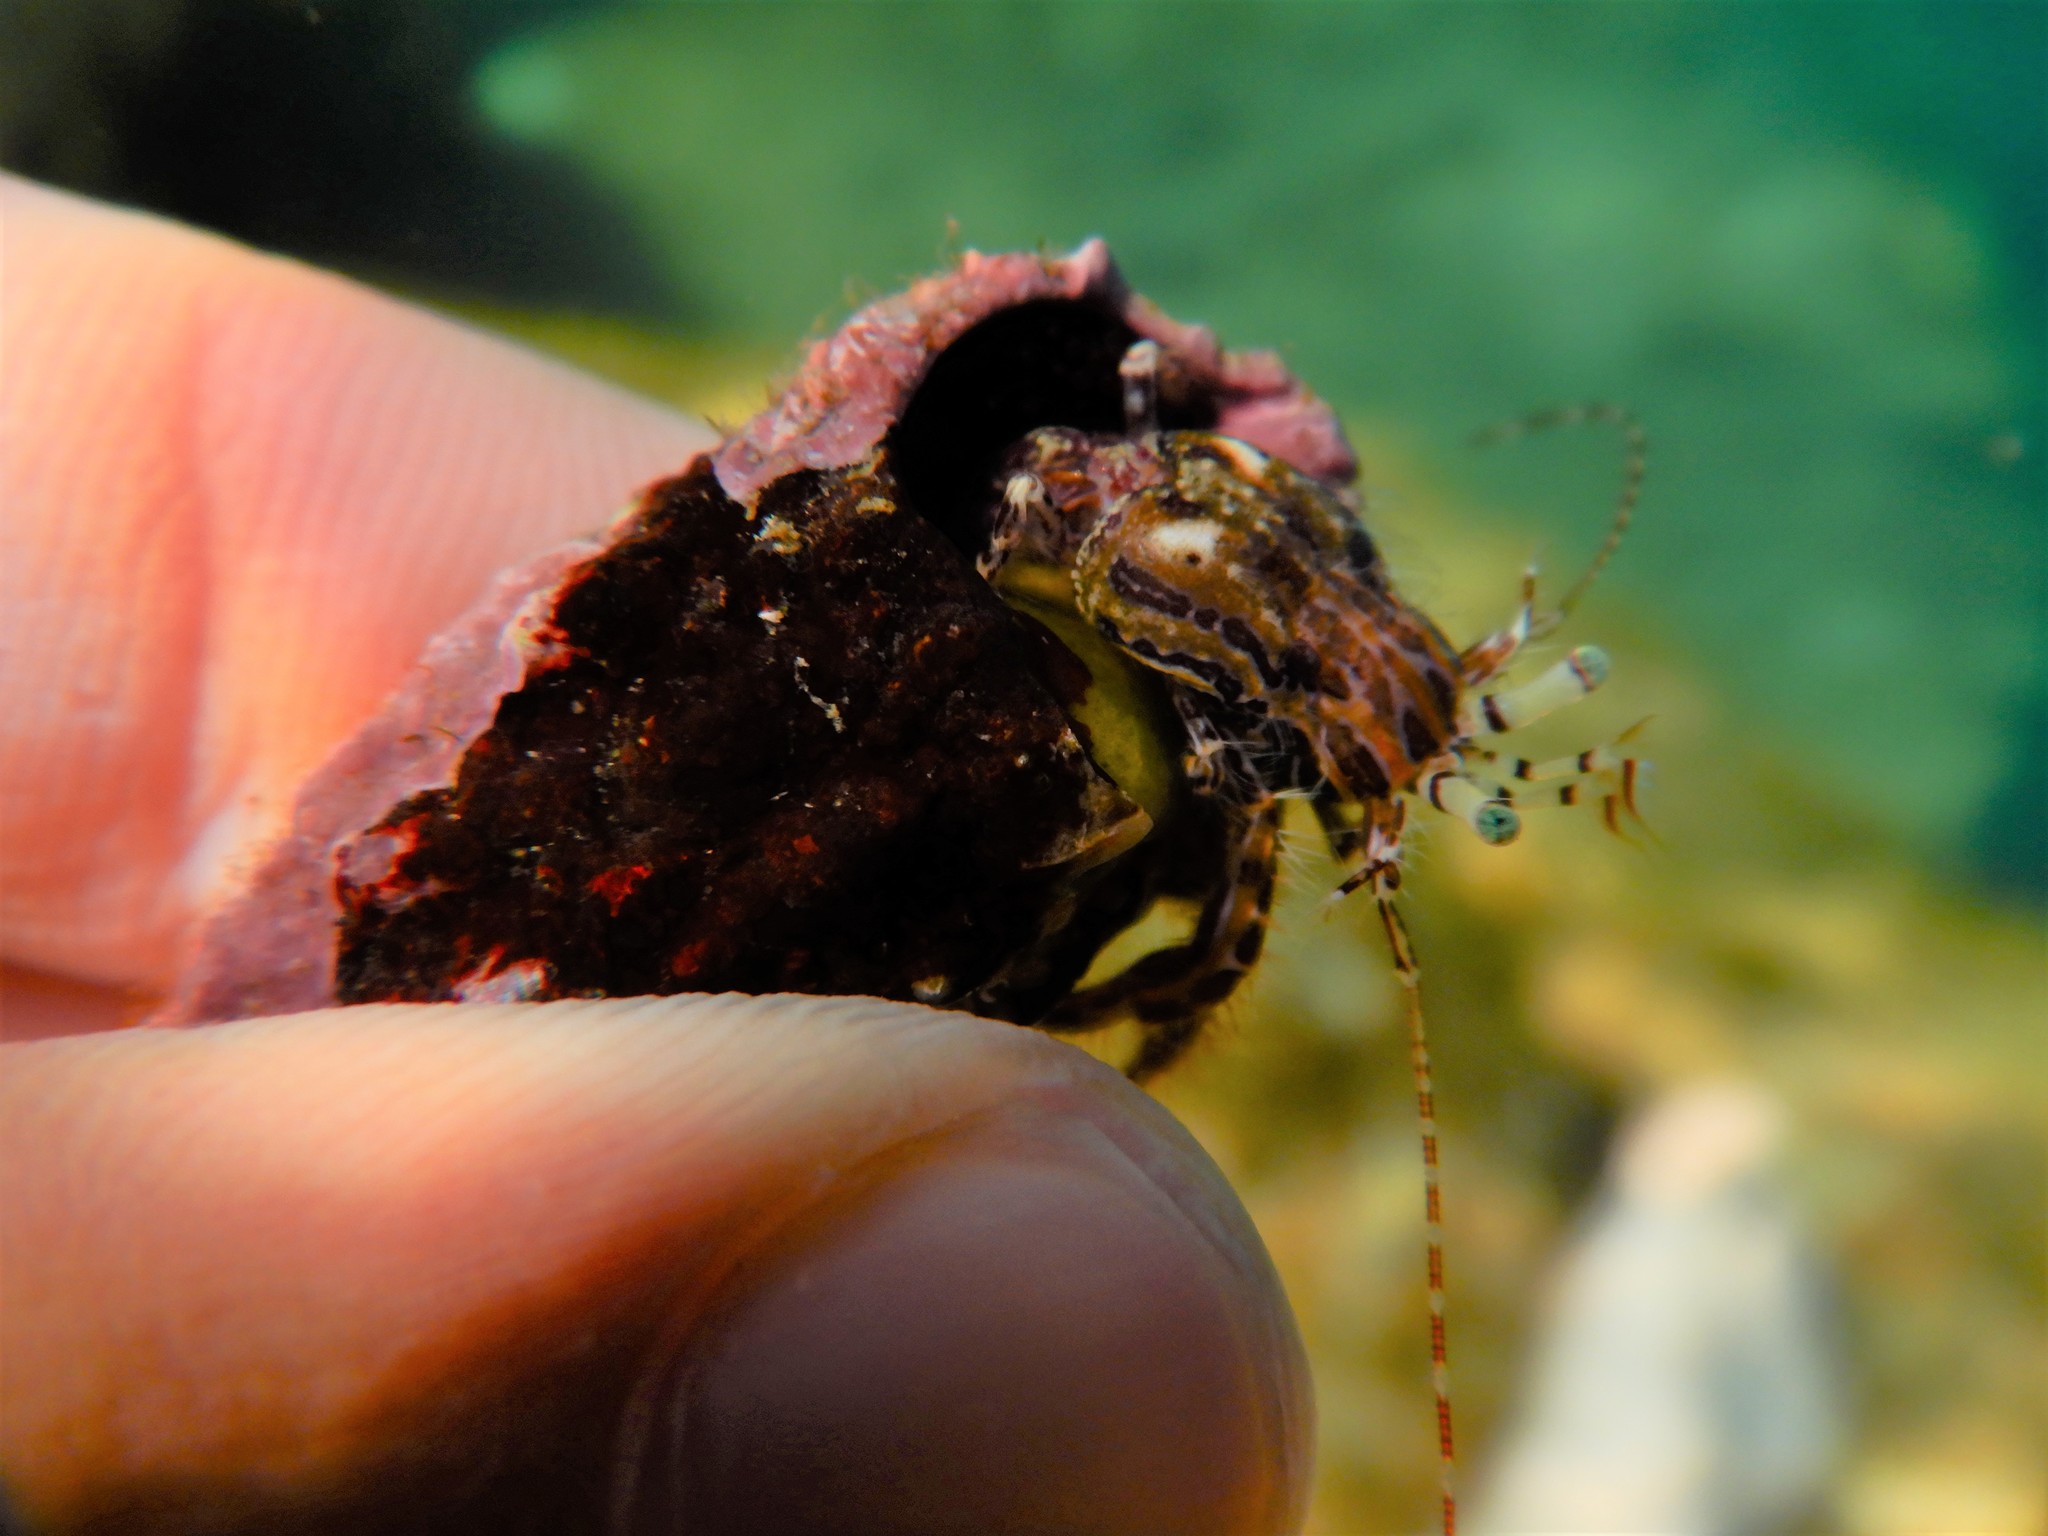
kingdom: Animalia
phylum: Arthropoda
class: Malacostraca
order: Decapoda
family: Paguridae
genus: Pagurus
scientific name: Pagurus anachoretus
